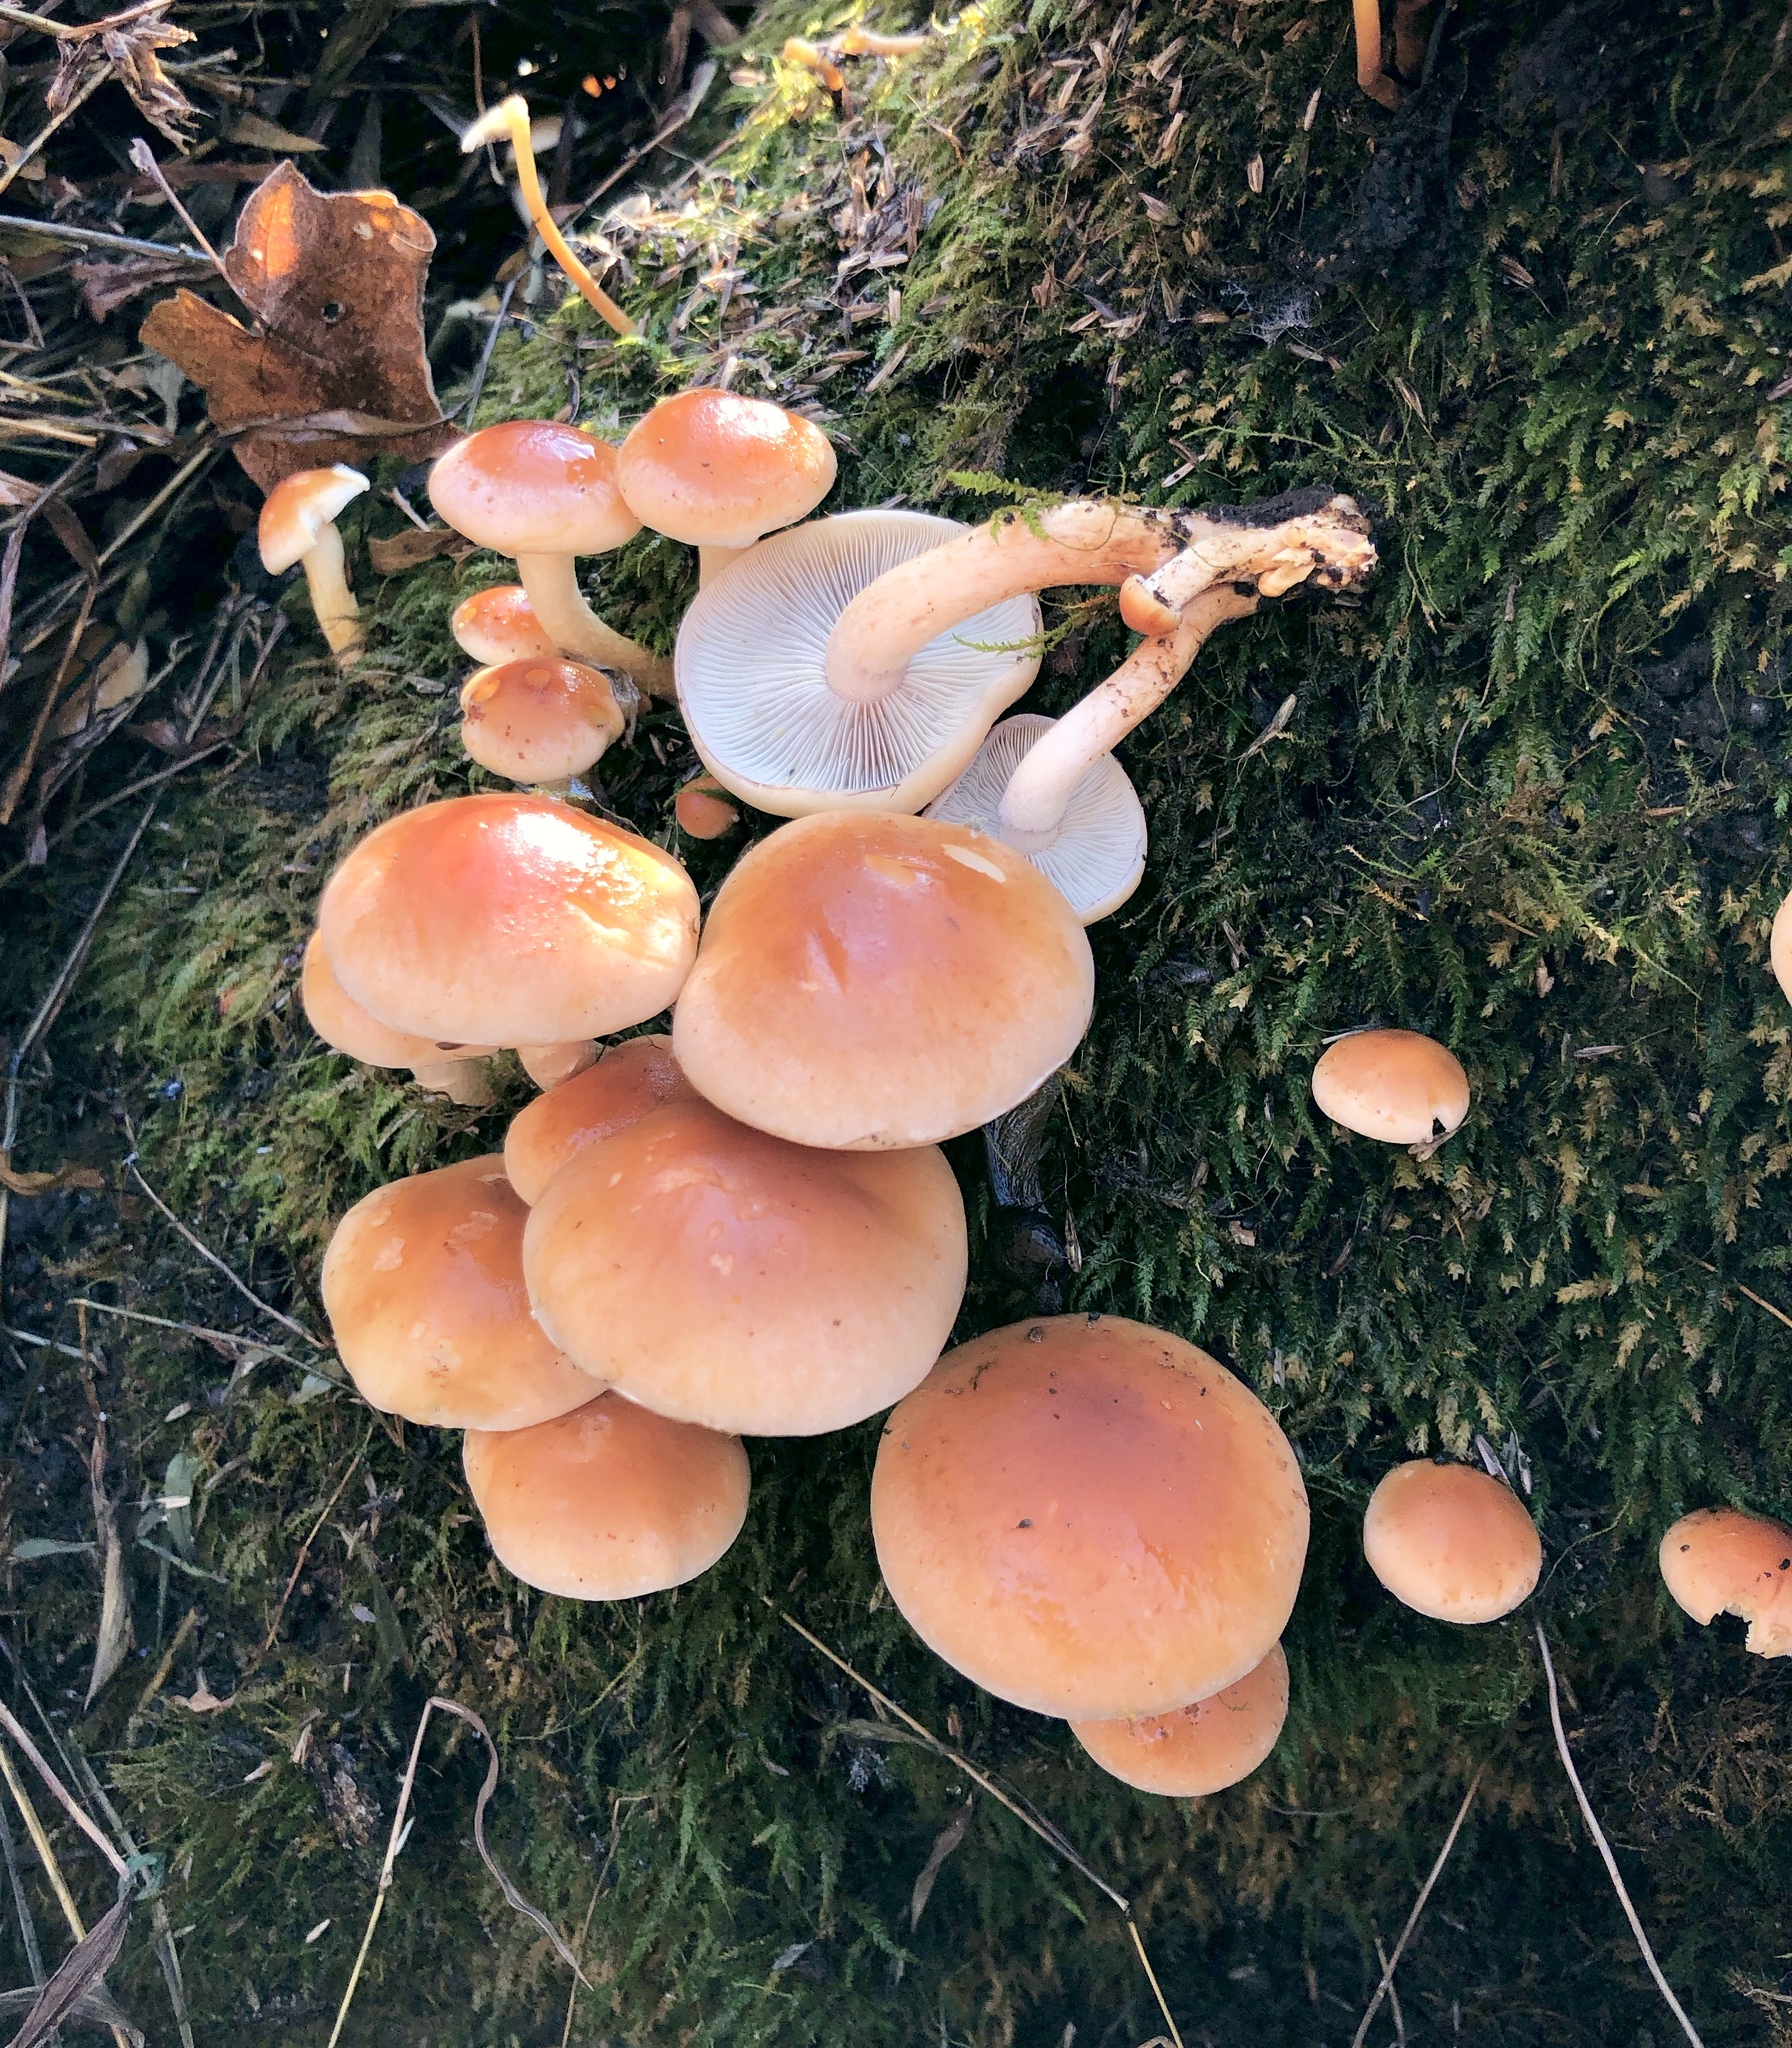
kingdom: Fungi
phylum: Basidiomycota
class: Agaricomycetes
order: Agaricales
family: Strophariaceae
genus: Hypholoma
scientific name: Hypholoma lateritium
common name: Brick caps
